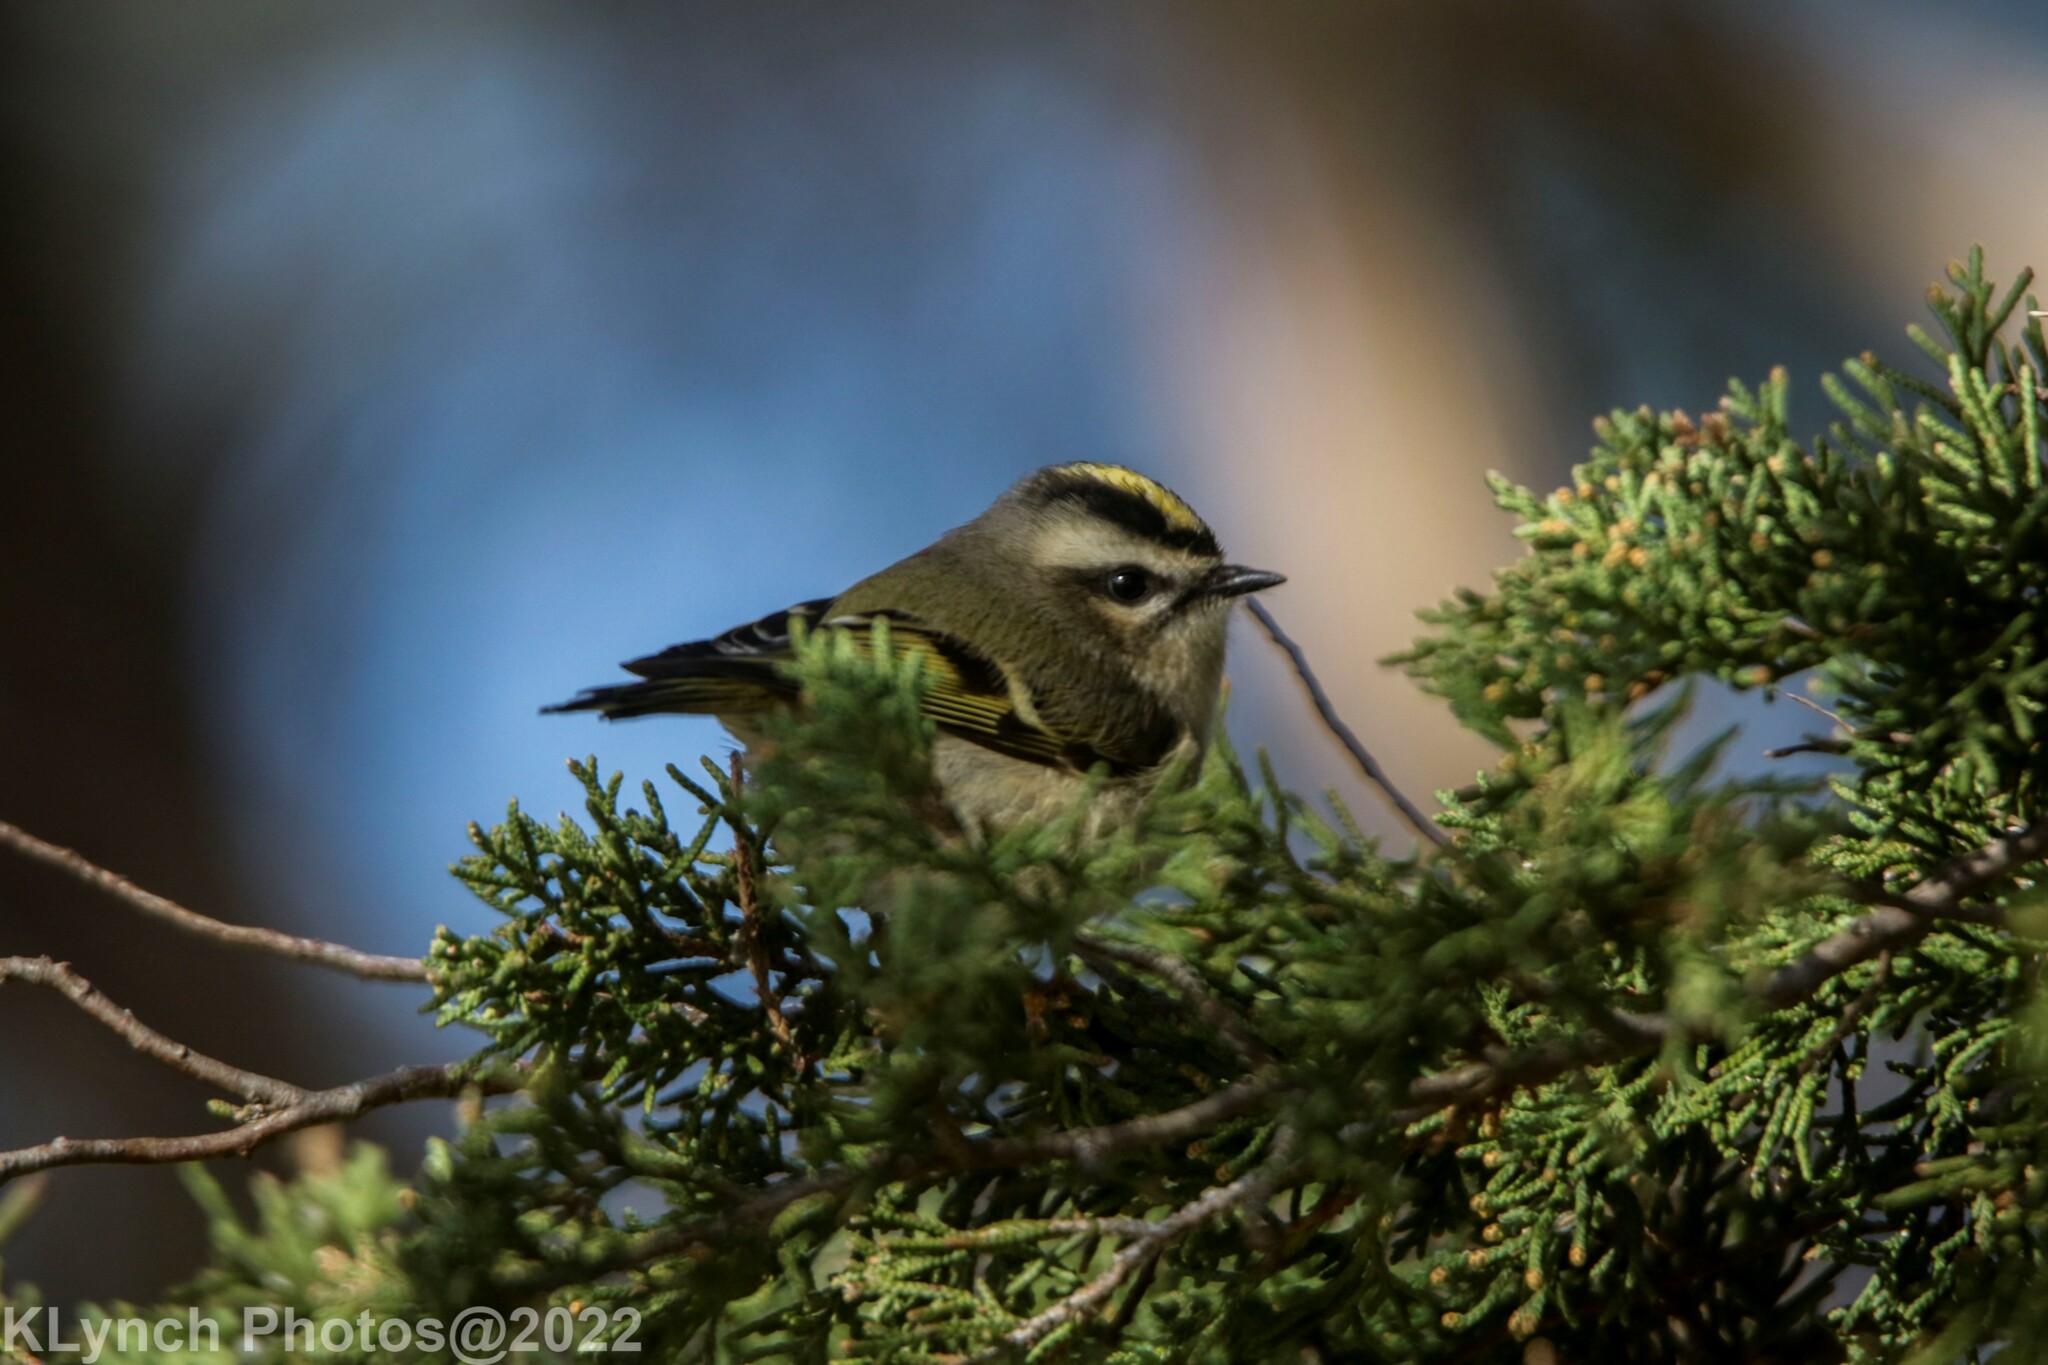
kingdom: Animalia
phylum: Chordata
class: Aves
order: Passeriformes
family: Regulidae
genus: Regulus
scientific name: Regulus satrapa
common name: Golden-crowned kinglet
